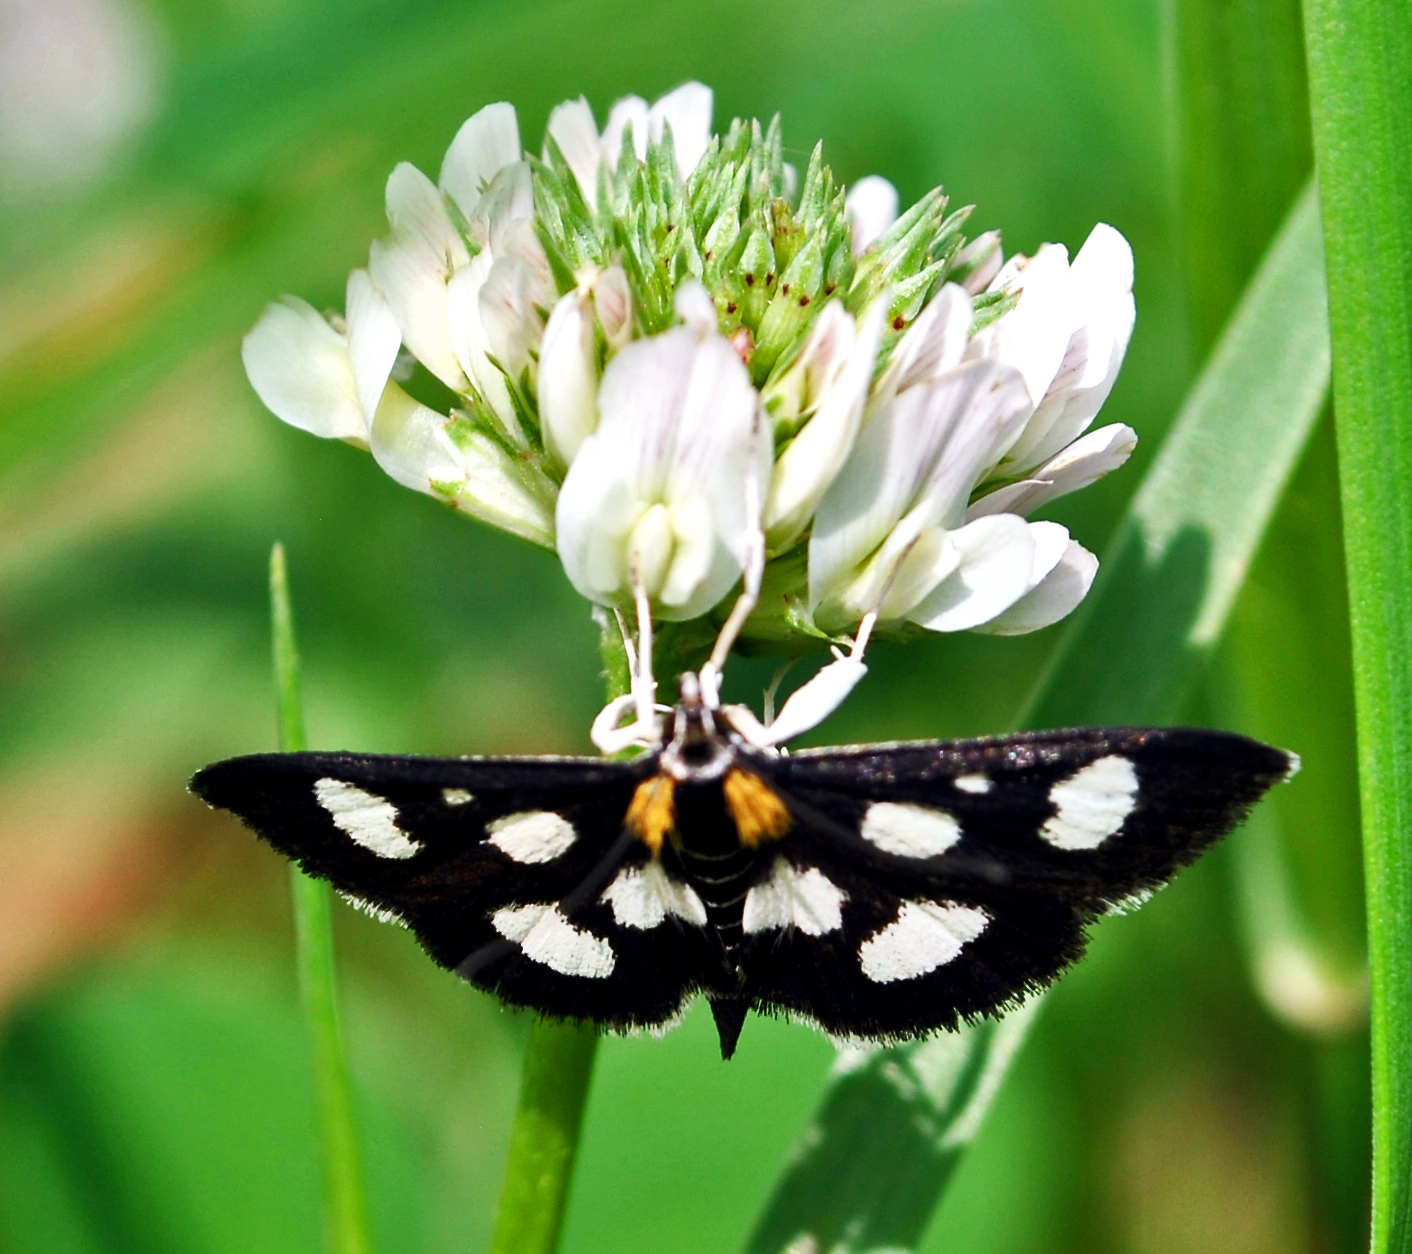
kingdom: Animalia
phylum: Arthropoda
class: Insecta
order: Lepidoptera
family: Crambidae
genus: Anania
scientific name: Anania funebris
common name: White-spotted sable moth
